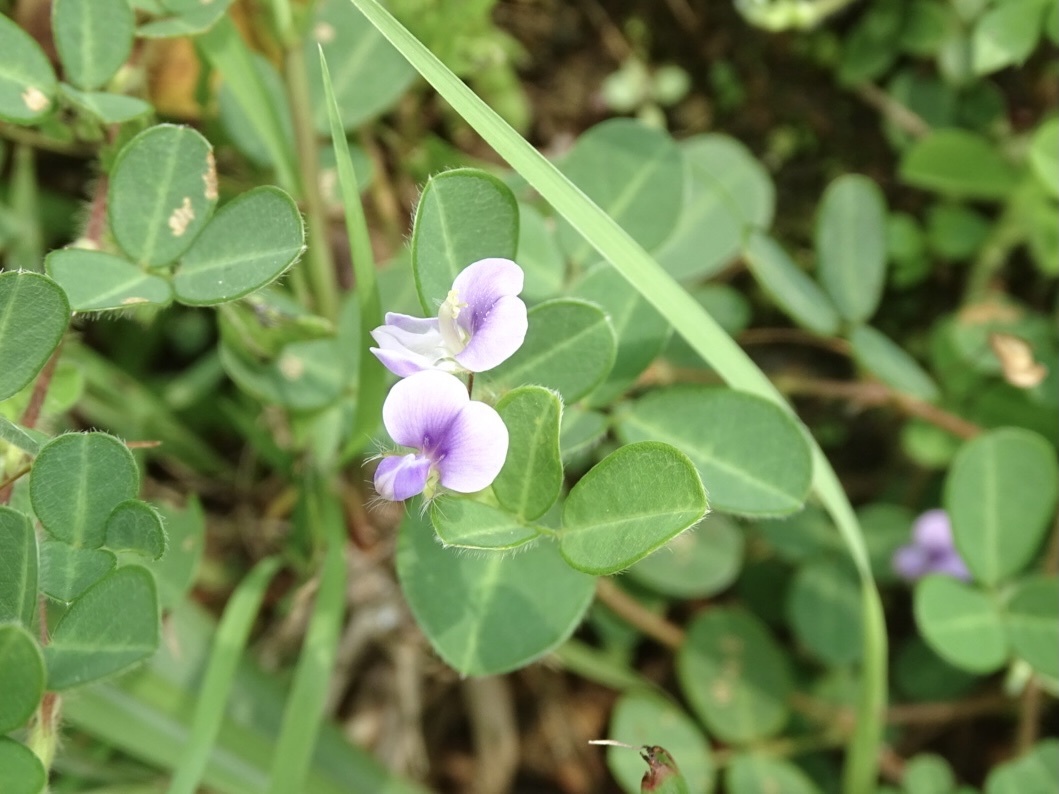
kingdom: Plantae
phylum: Tracheophyta
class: Magnoliopsida
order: Fabales
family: Fabaceae
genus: Grona
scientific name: Grona triflora
